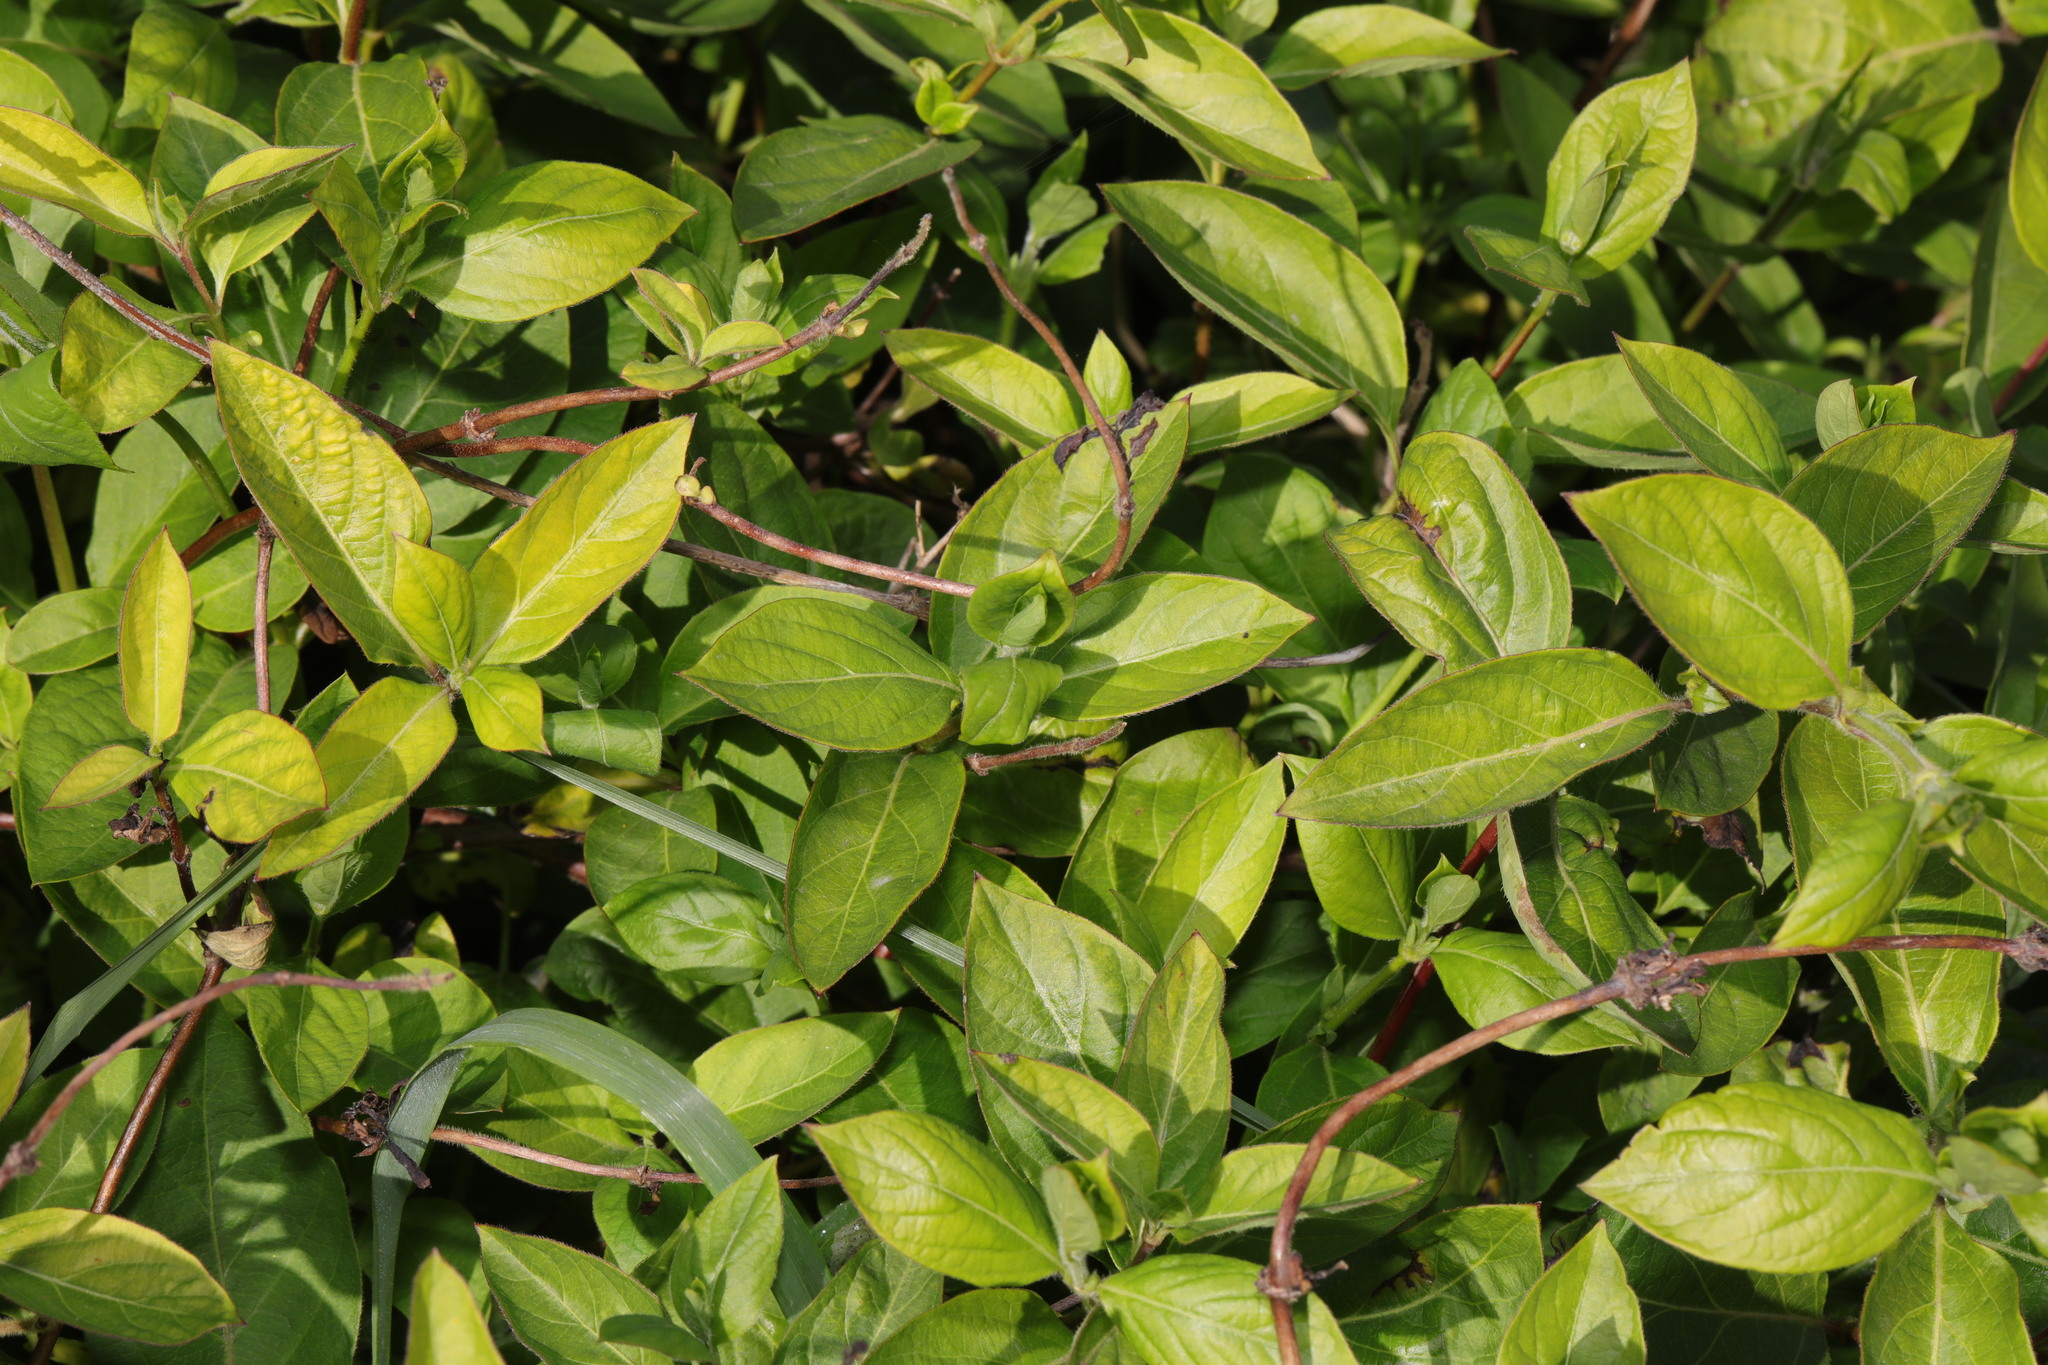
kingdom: Plantae
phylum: Tracheophyta
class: Magnoliopsida
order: Dipsacales
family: Caprifoliaceae
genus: Lonicera
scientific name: Lonicera japonica
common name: Japanese honeysuckle
